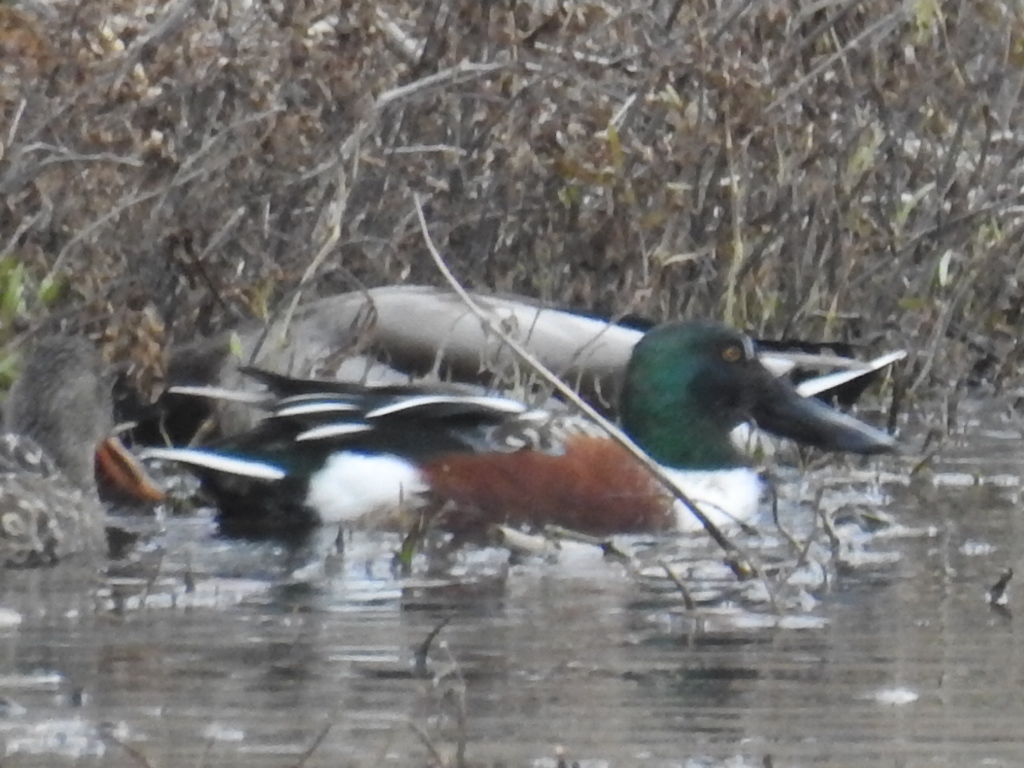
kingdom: Animalia
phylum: Chordata
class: Aves
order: Anseriformes
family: Anatidae
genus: Spatula
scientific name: Spatula clypeata
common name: Northern shoveler
